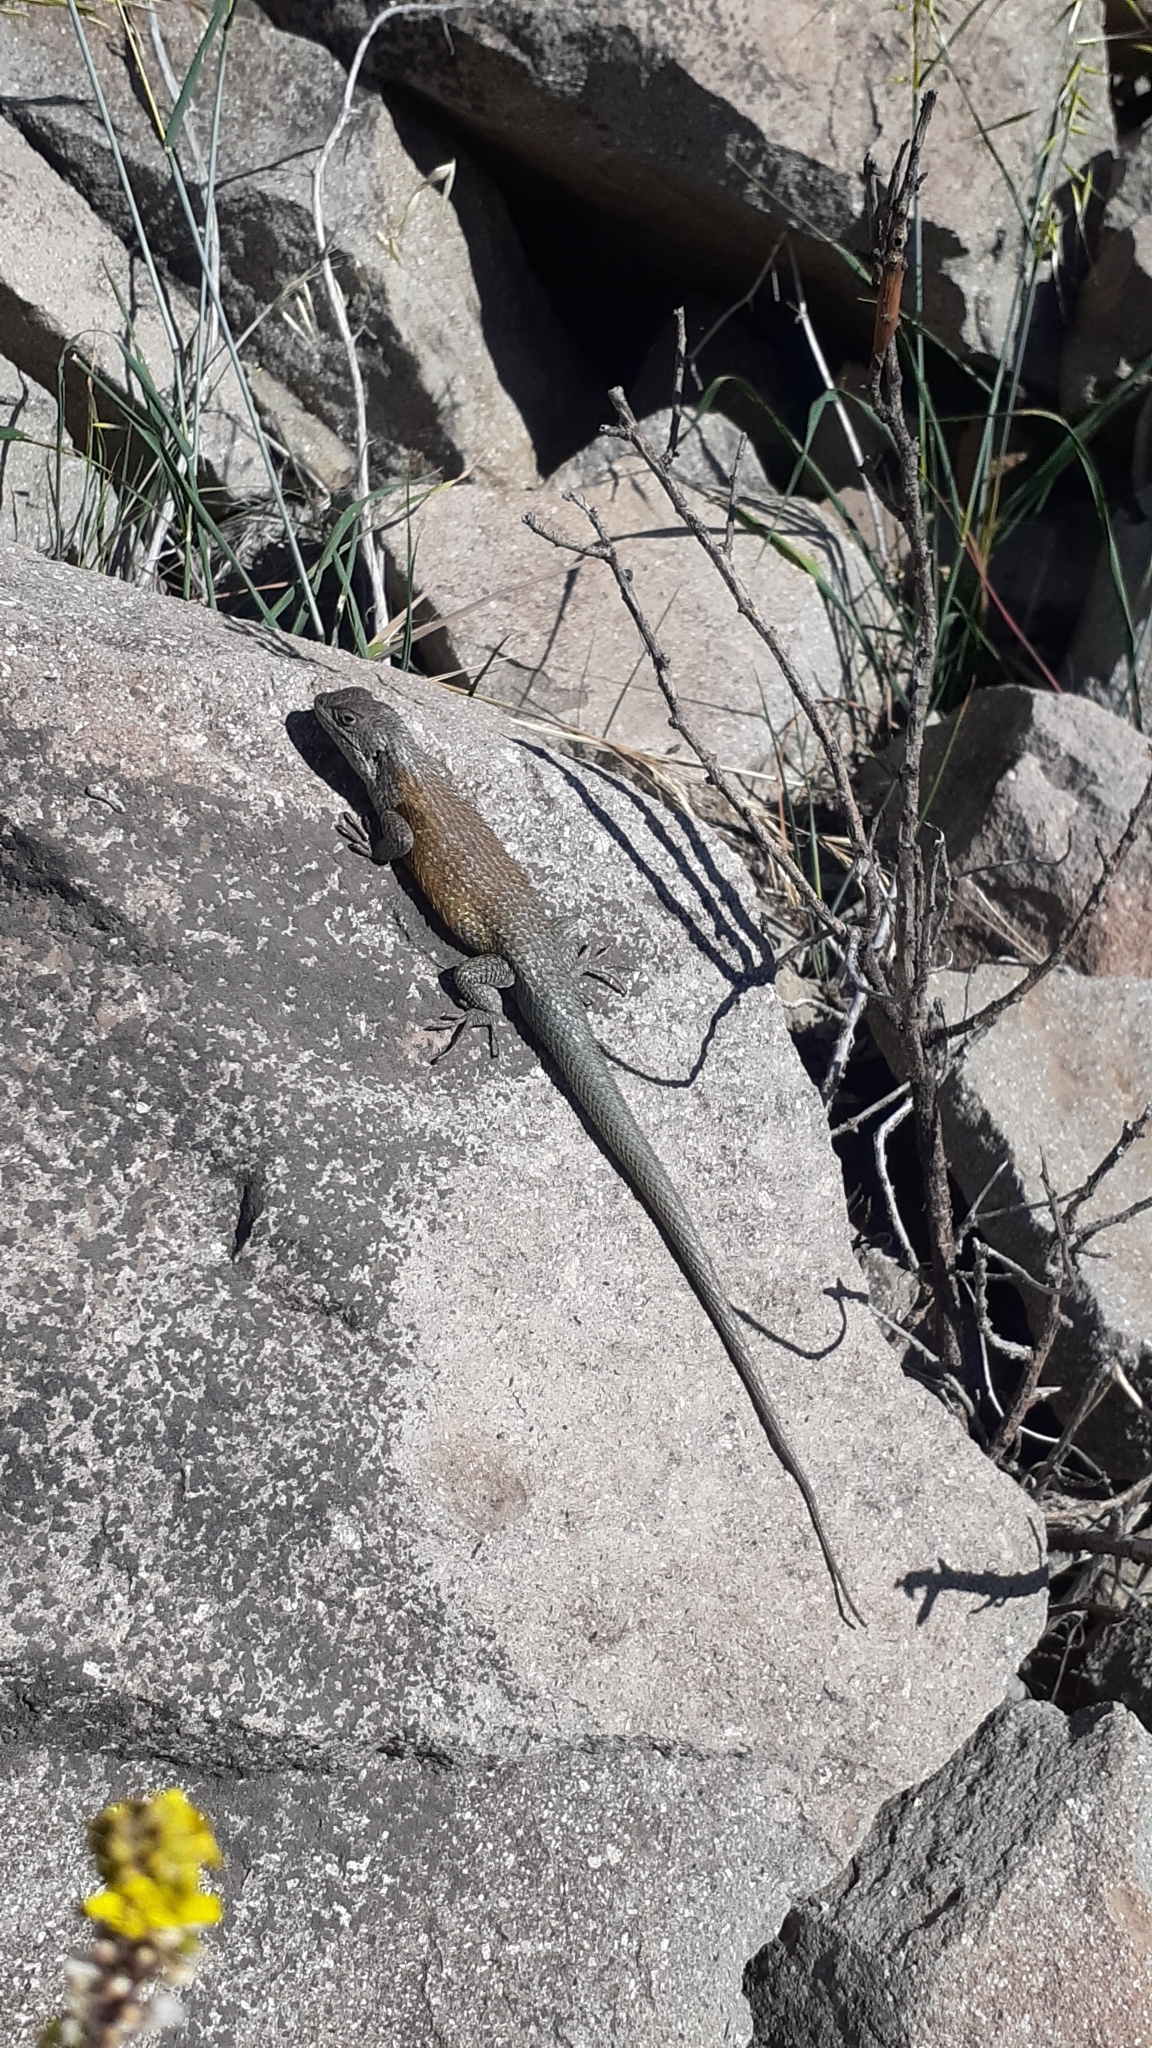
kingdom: Animalia
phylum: Chordata
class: Squamata
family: Liolaemidae
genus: Liolaemus
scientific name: Liolaemus nitidus
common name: Shining tree iguana
